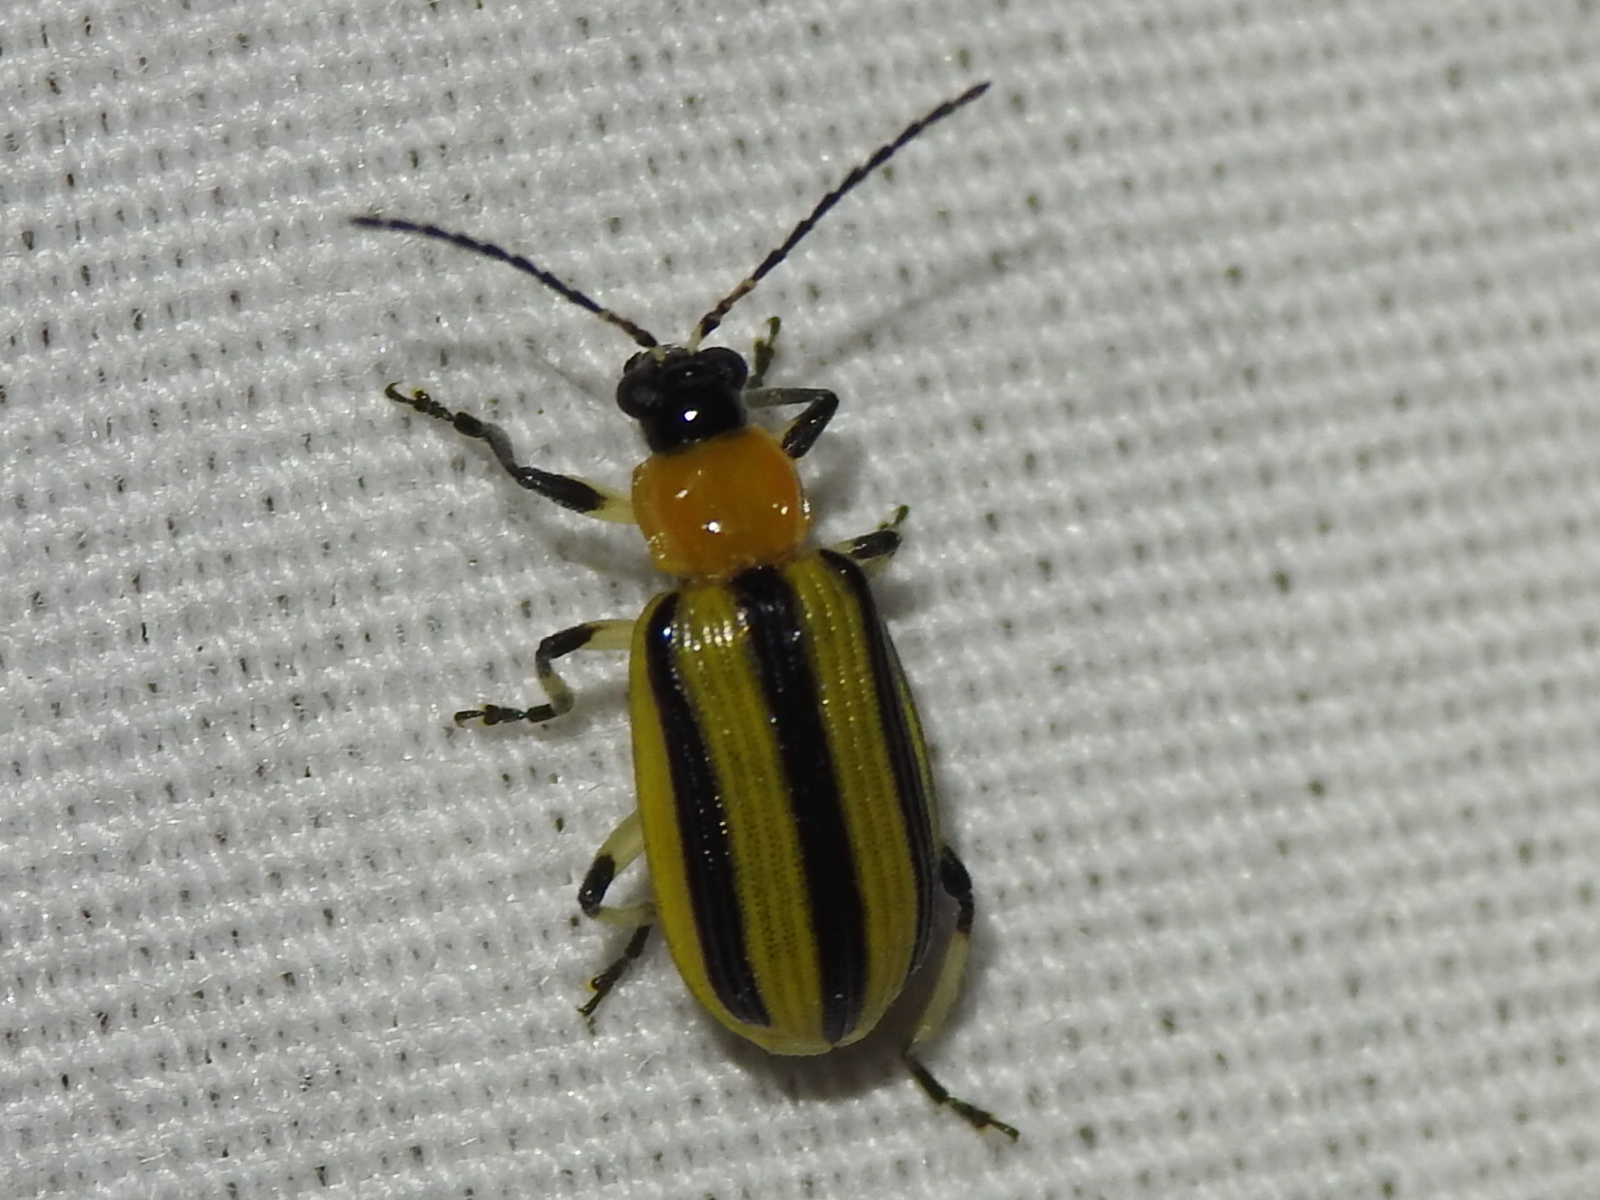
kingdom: Animalia
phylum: Arthropoda
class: Insecta
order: Coleoptera
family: Chrysomelidae
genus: Acalymma
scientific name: Acalymma vittatum
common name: Striped cucumber beetle
